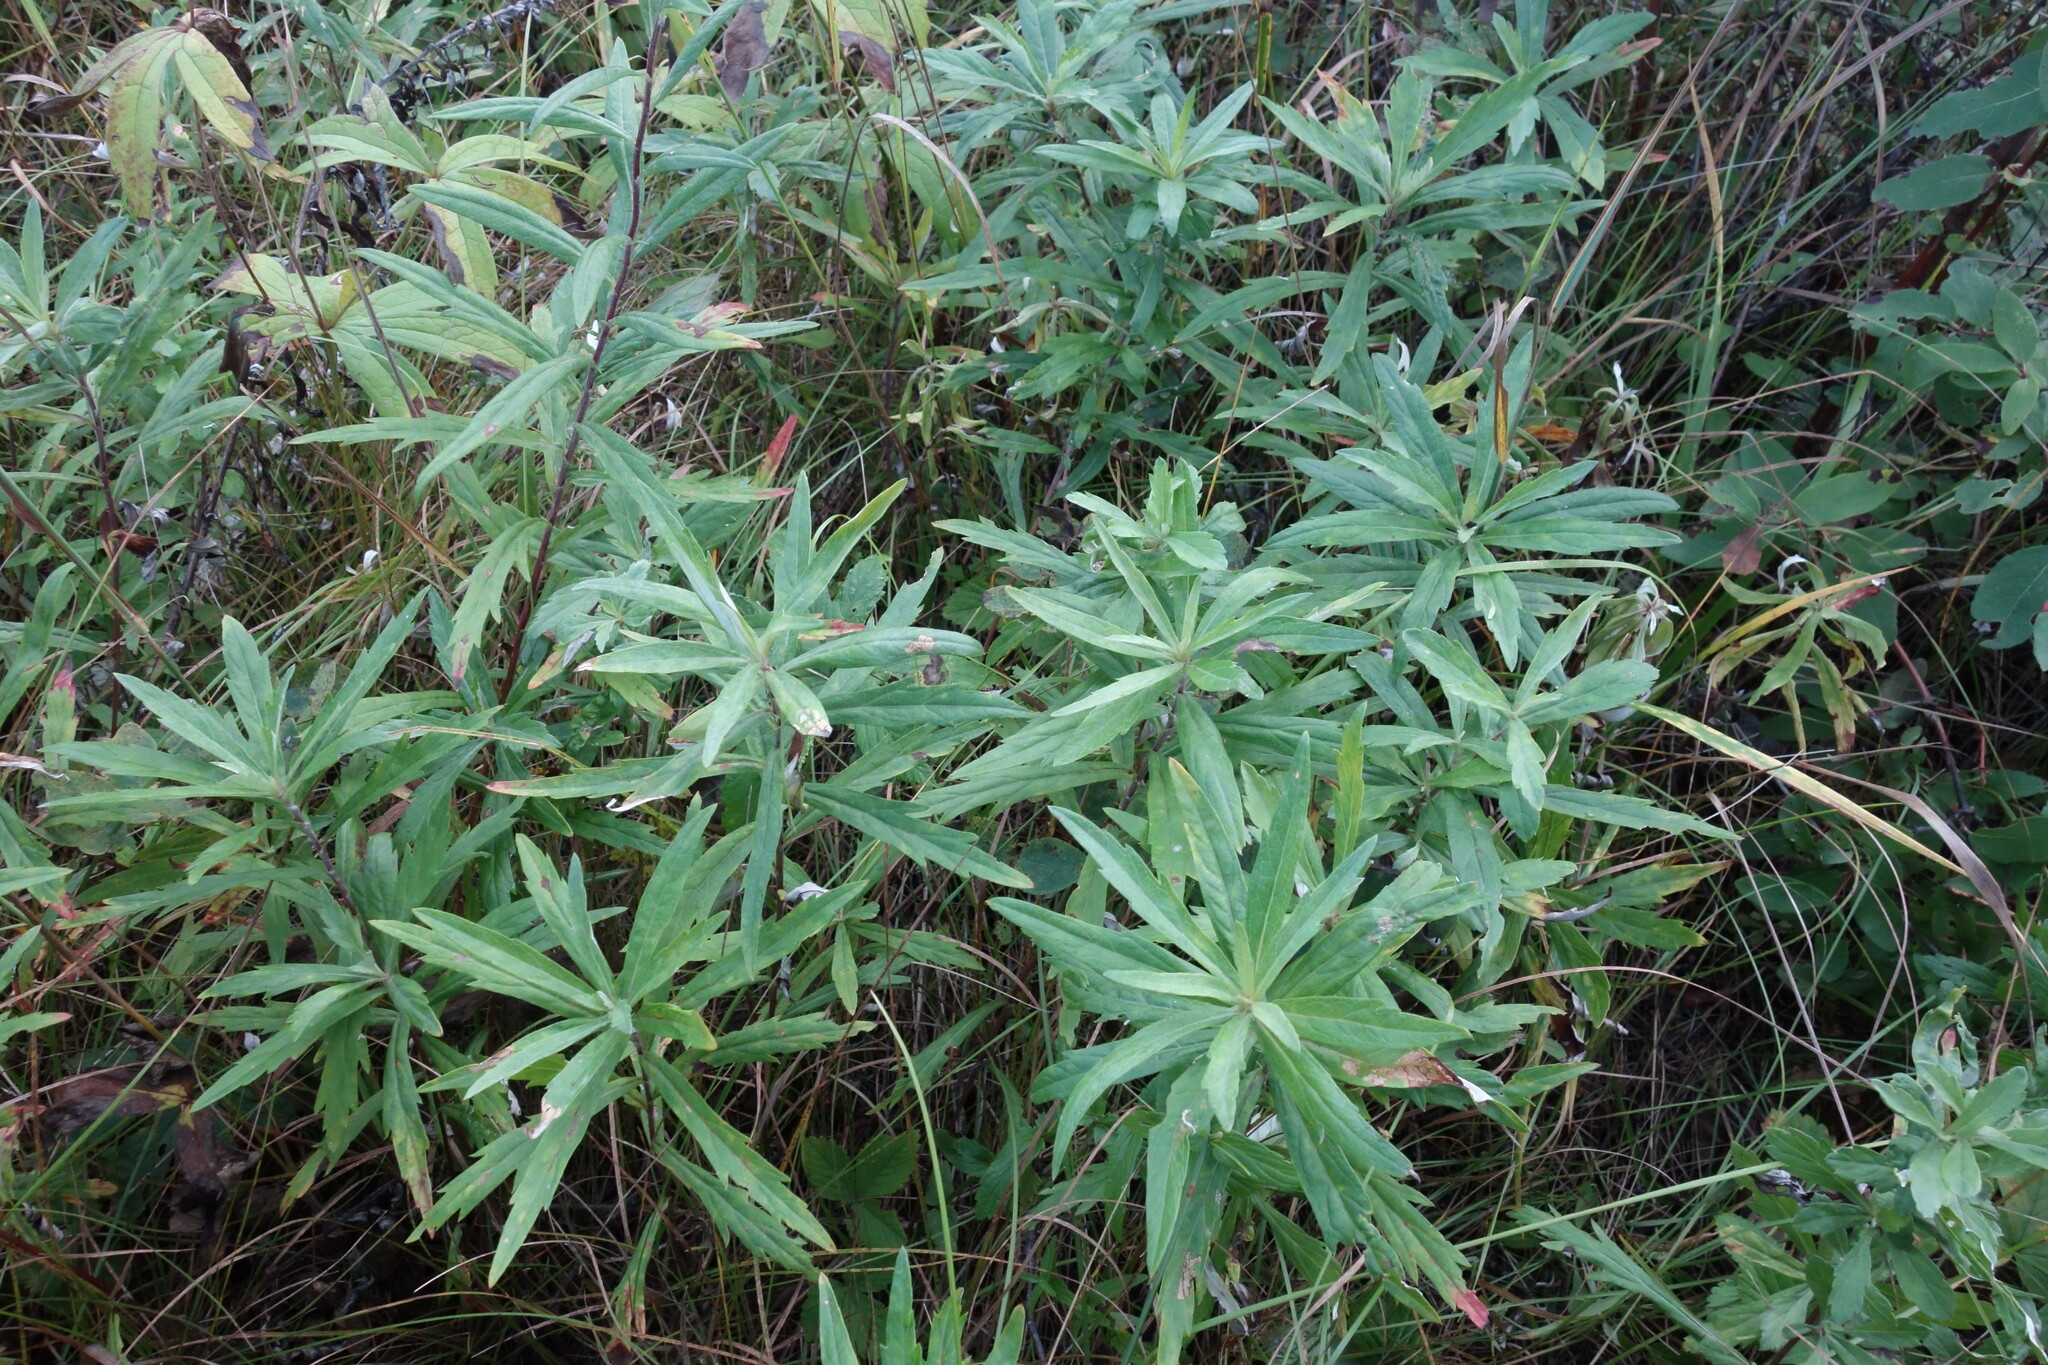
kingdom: Plantae
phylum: Tracheophyta
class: Magnoliopsida
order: Asterales
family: Asteraceae
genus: Artemisia
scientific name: Artemisia integrifolia
